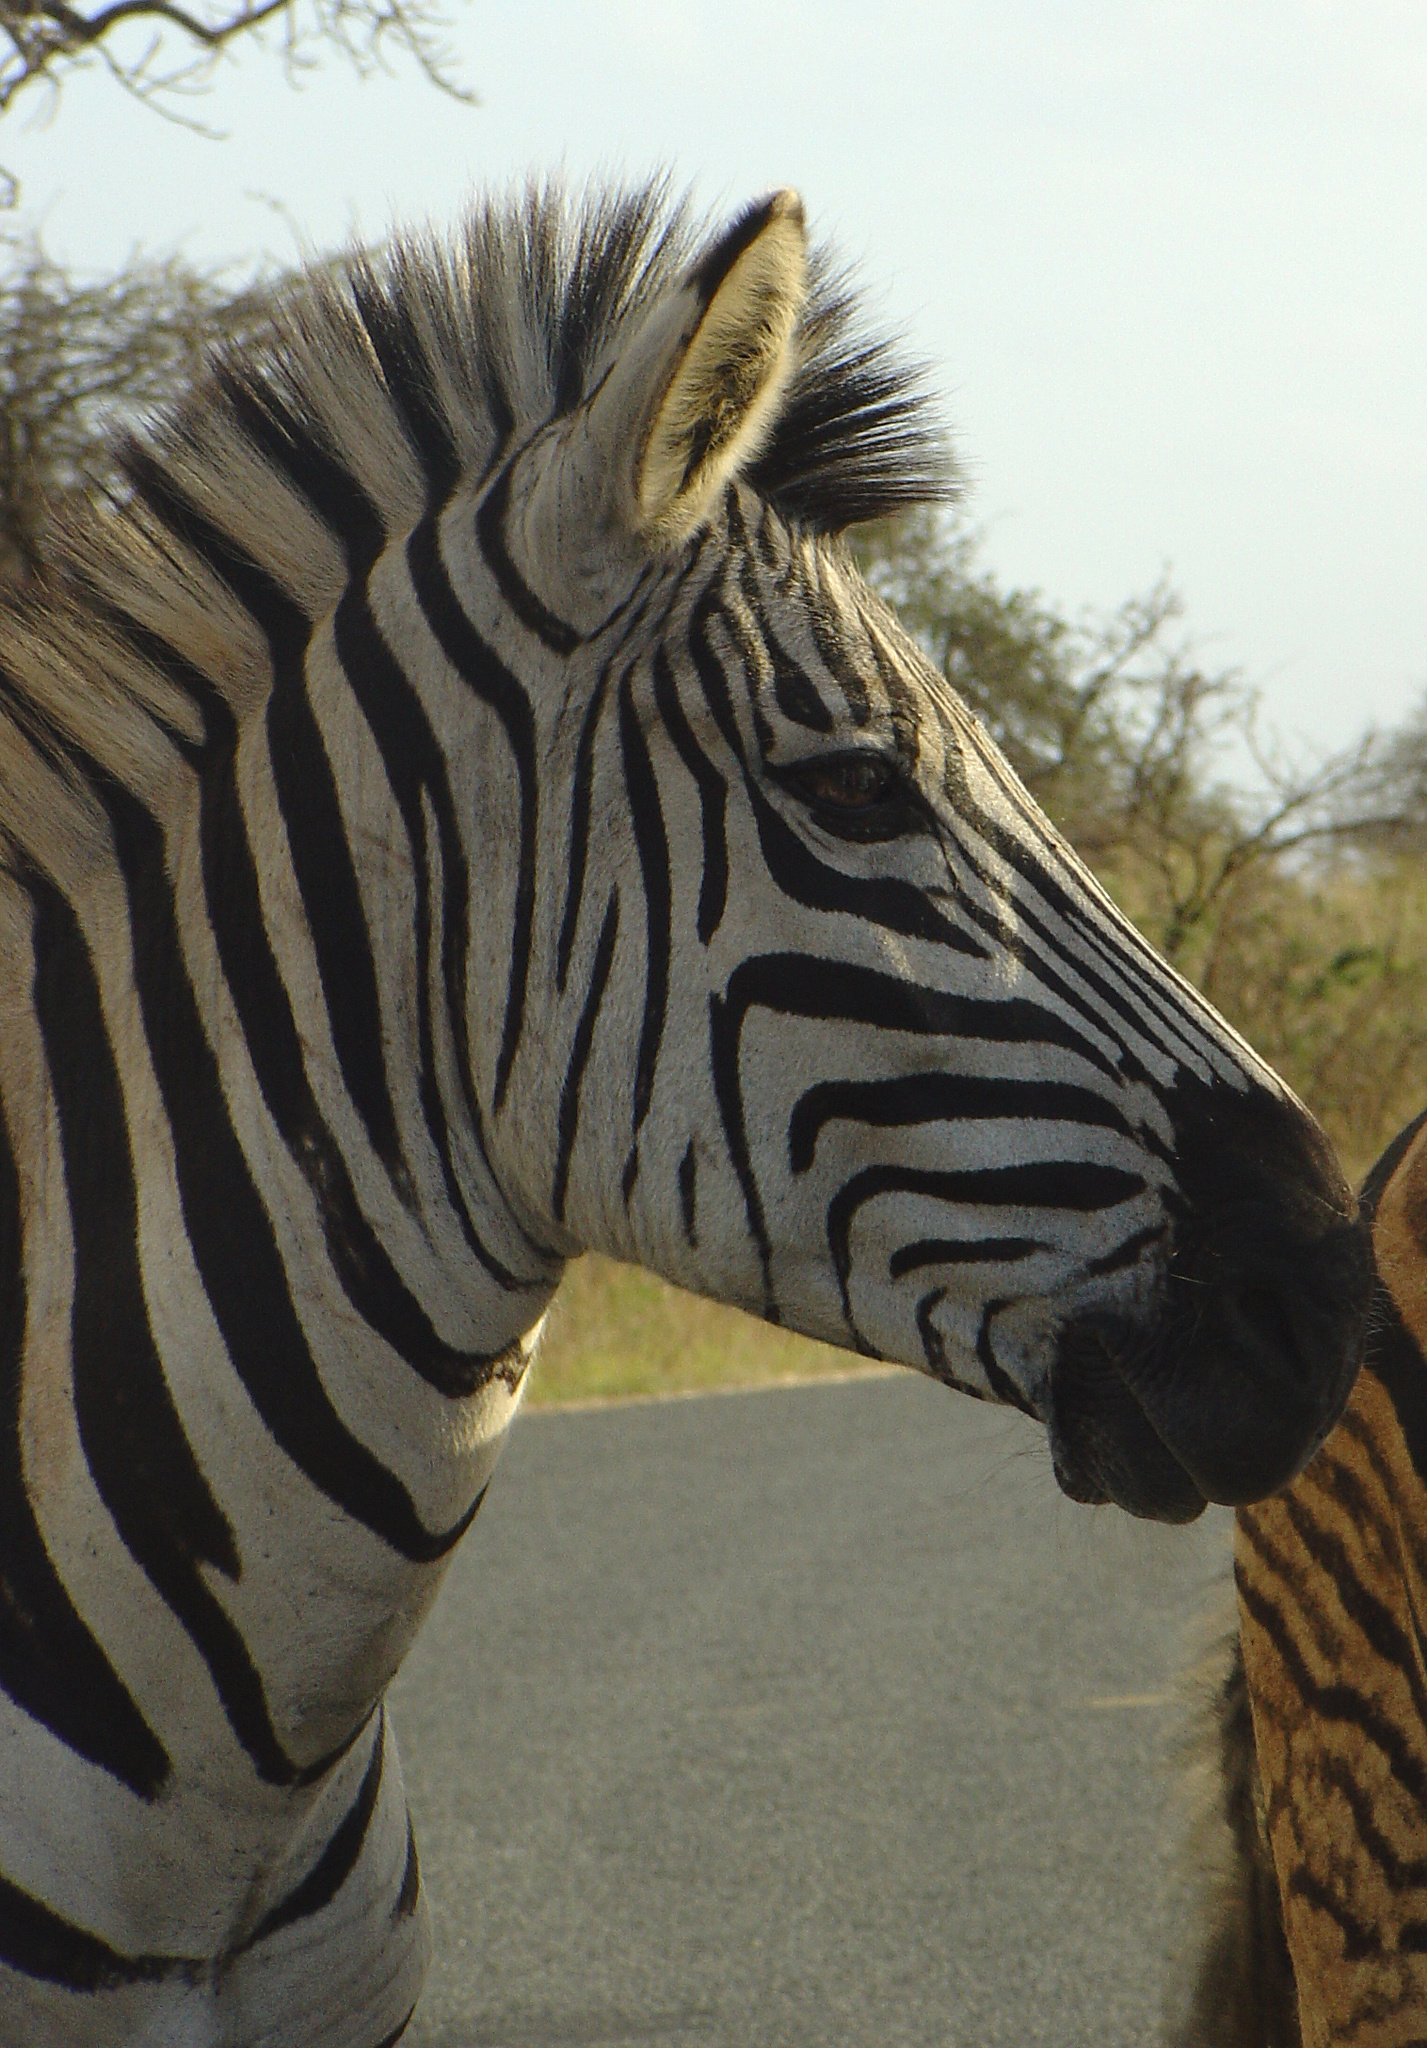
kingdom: Animalia
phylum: Chordata
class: Mammalia
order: Perissodactyla
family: Equidae
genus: Equus
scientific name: Equus quagga
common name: Plains zebra
